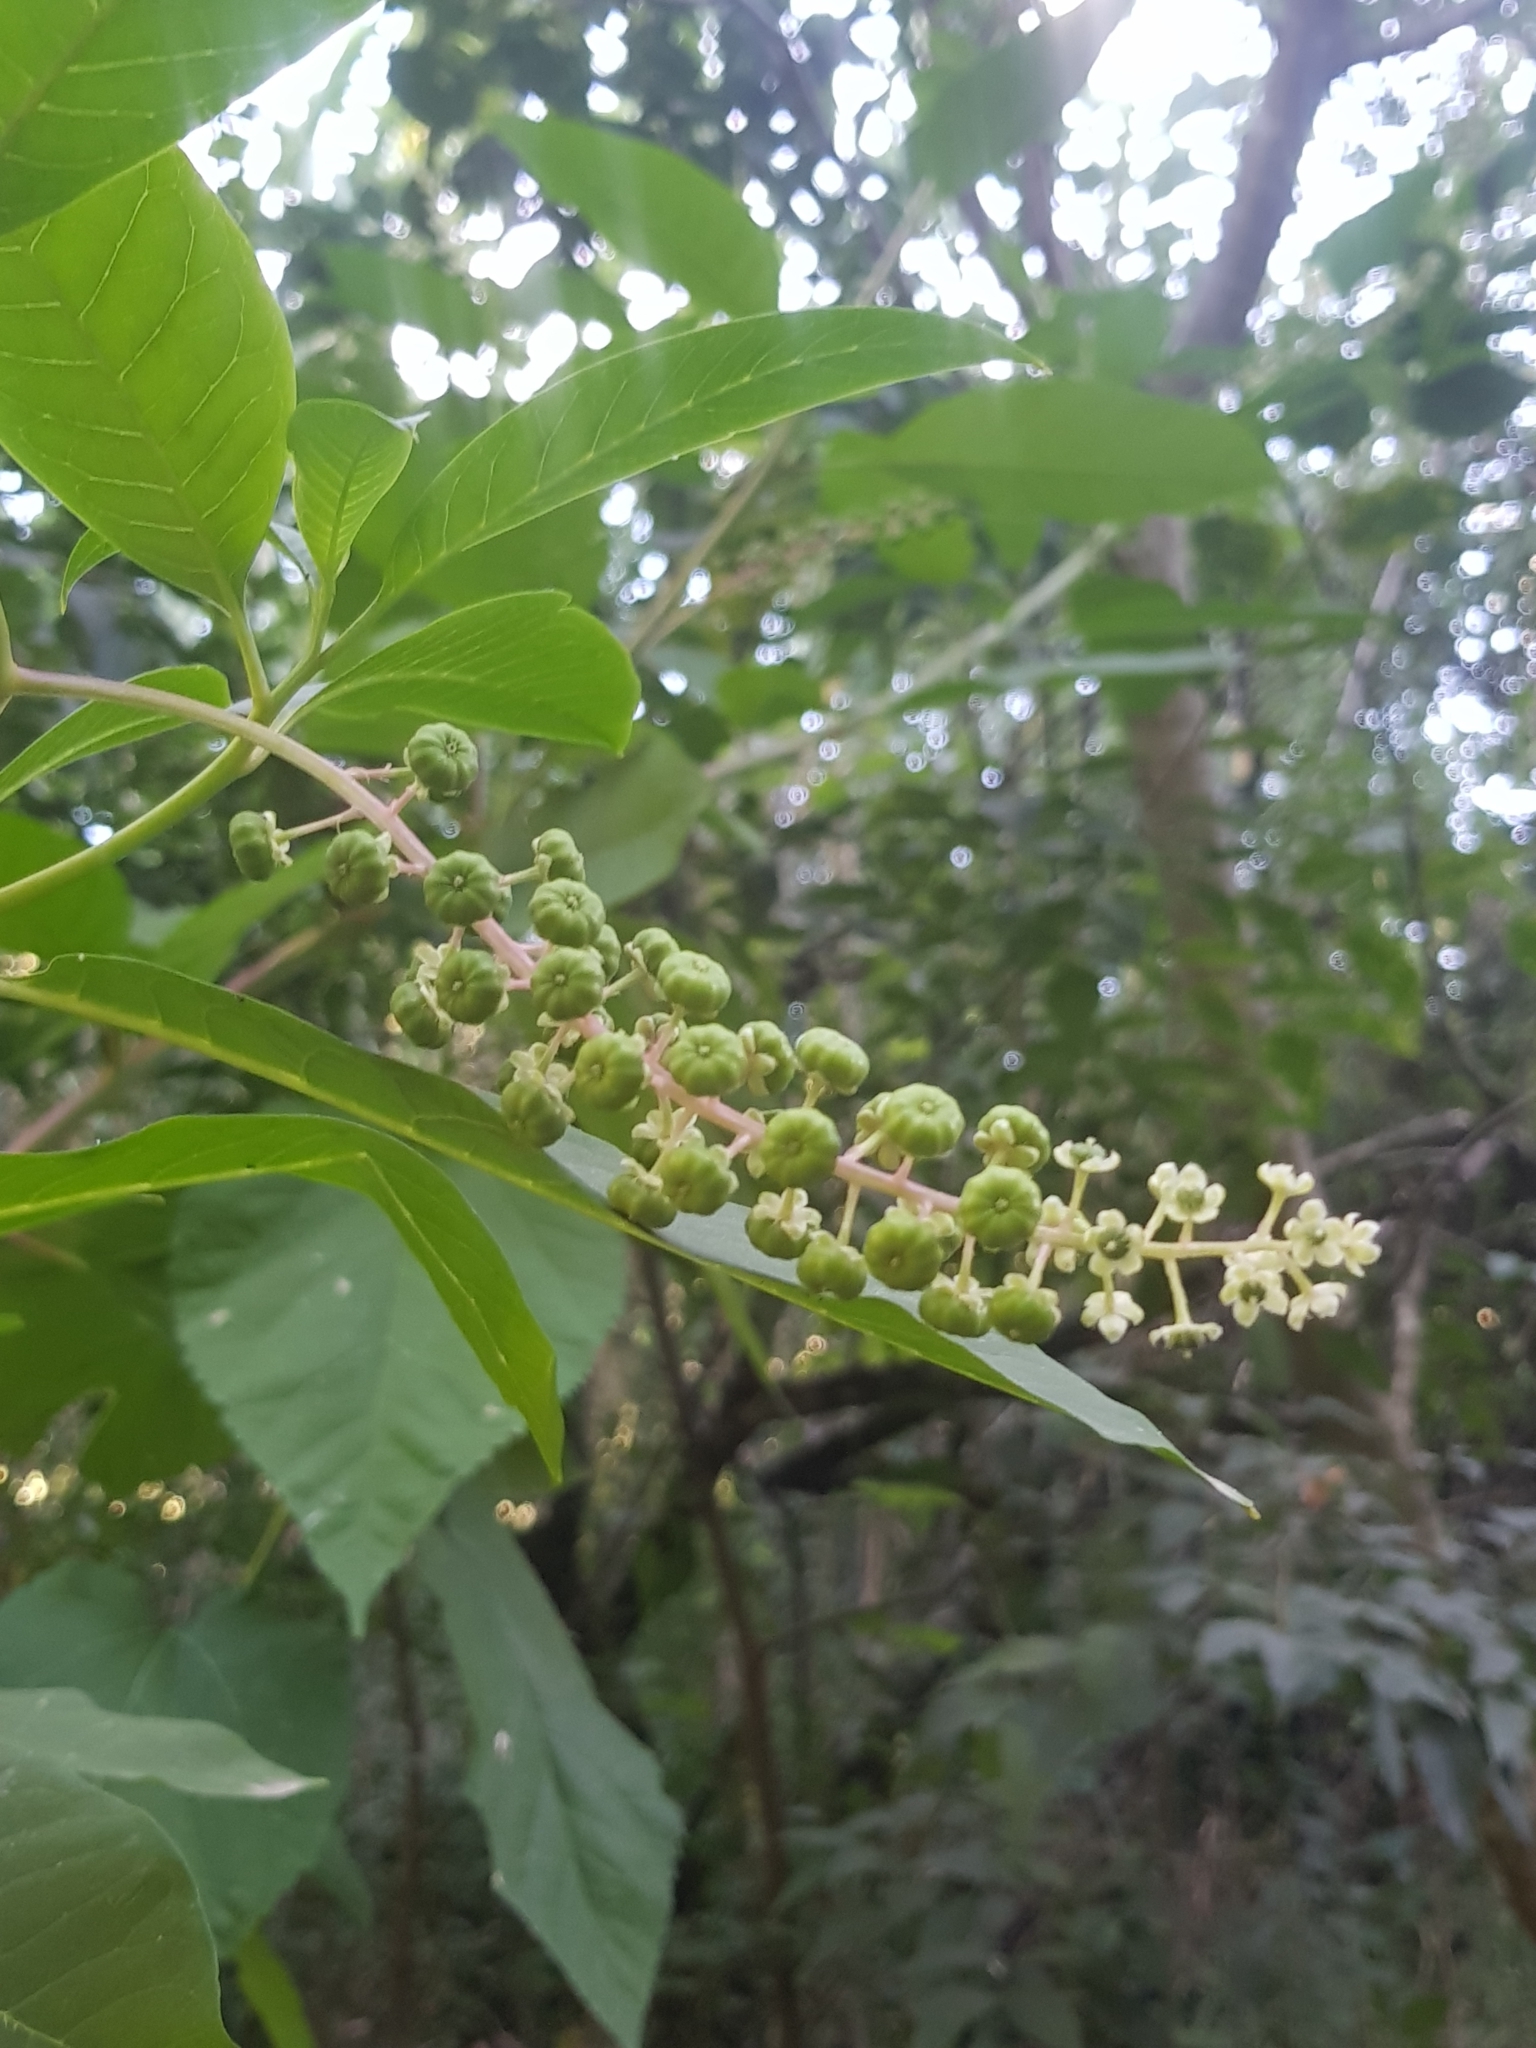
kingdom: Plantae
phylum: Tracheophyta
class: Magnoliopsida
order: Caryophyllales
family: Phytolaccaceae
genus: Phytolacca
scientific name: Phytolacca americana
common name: American pokeweed
